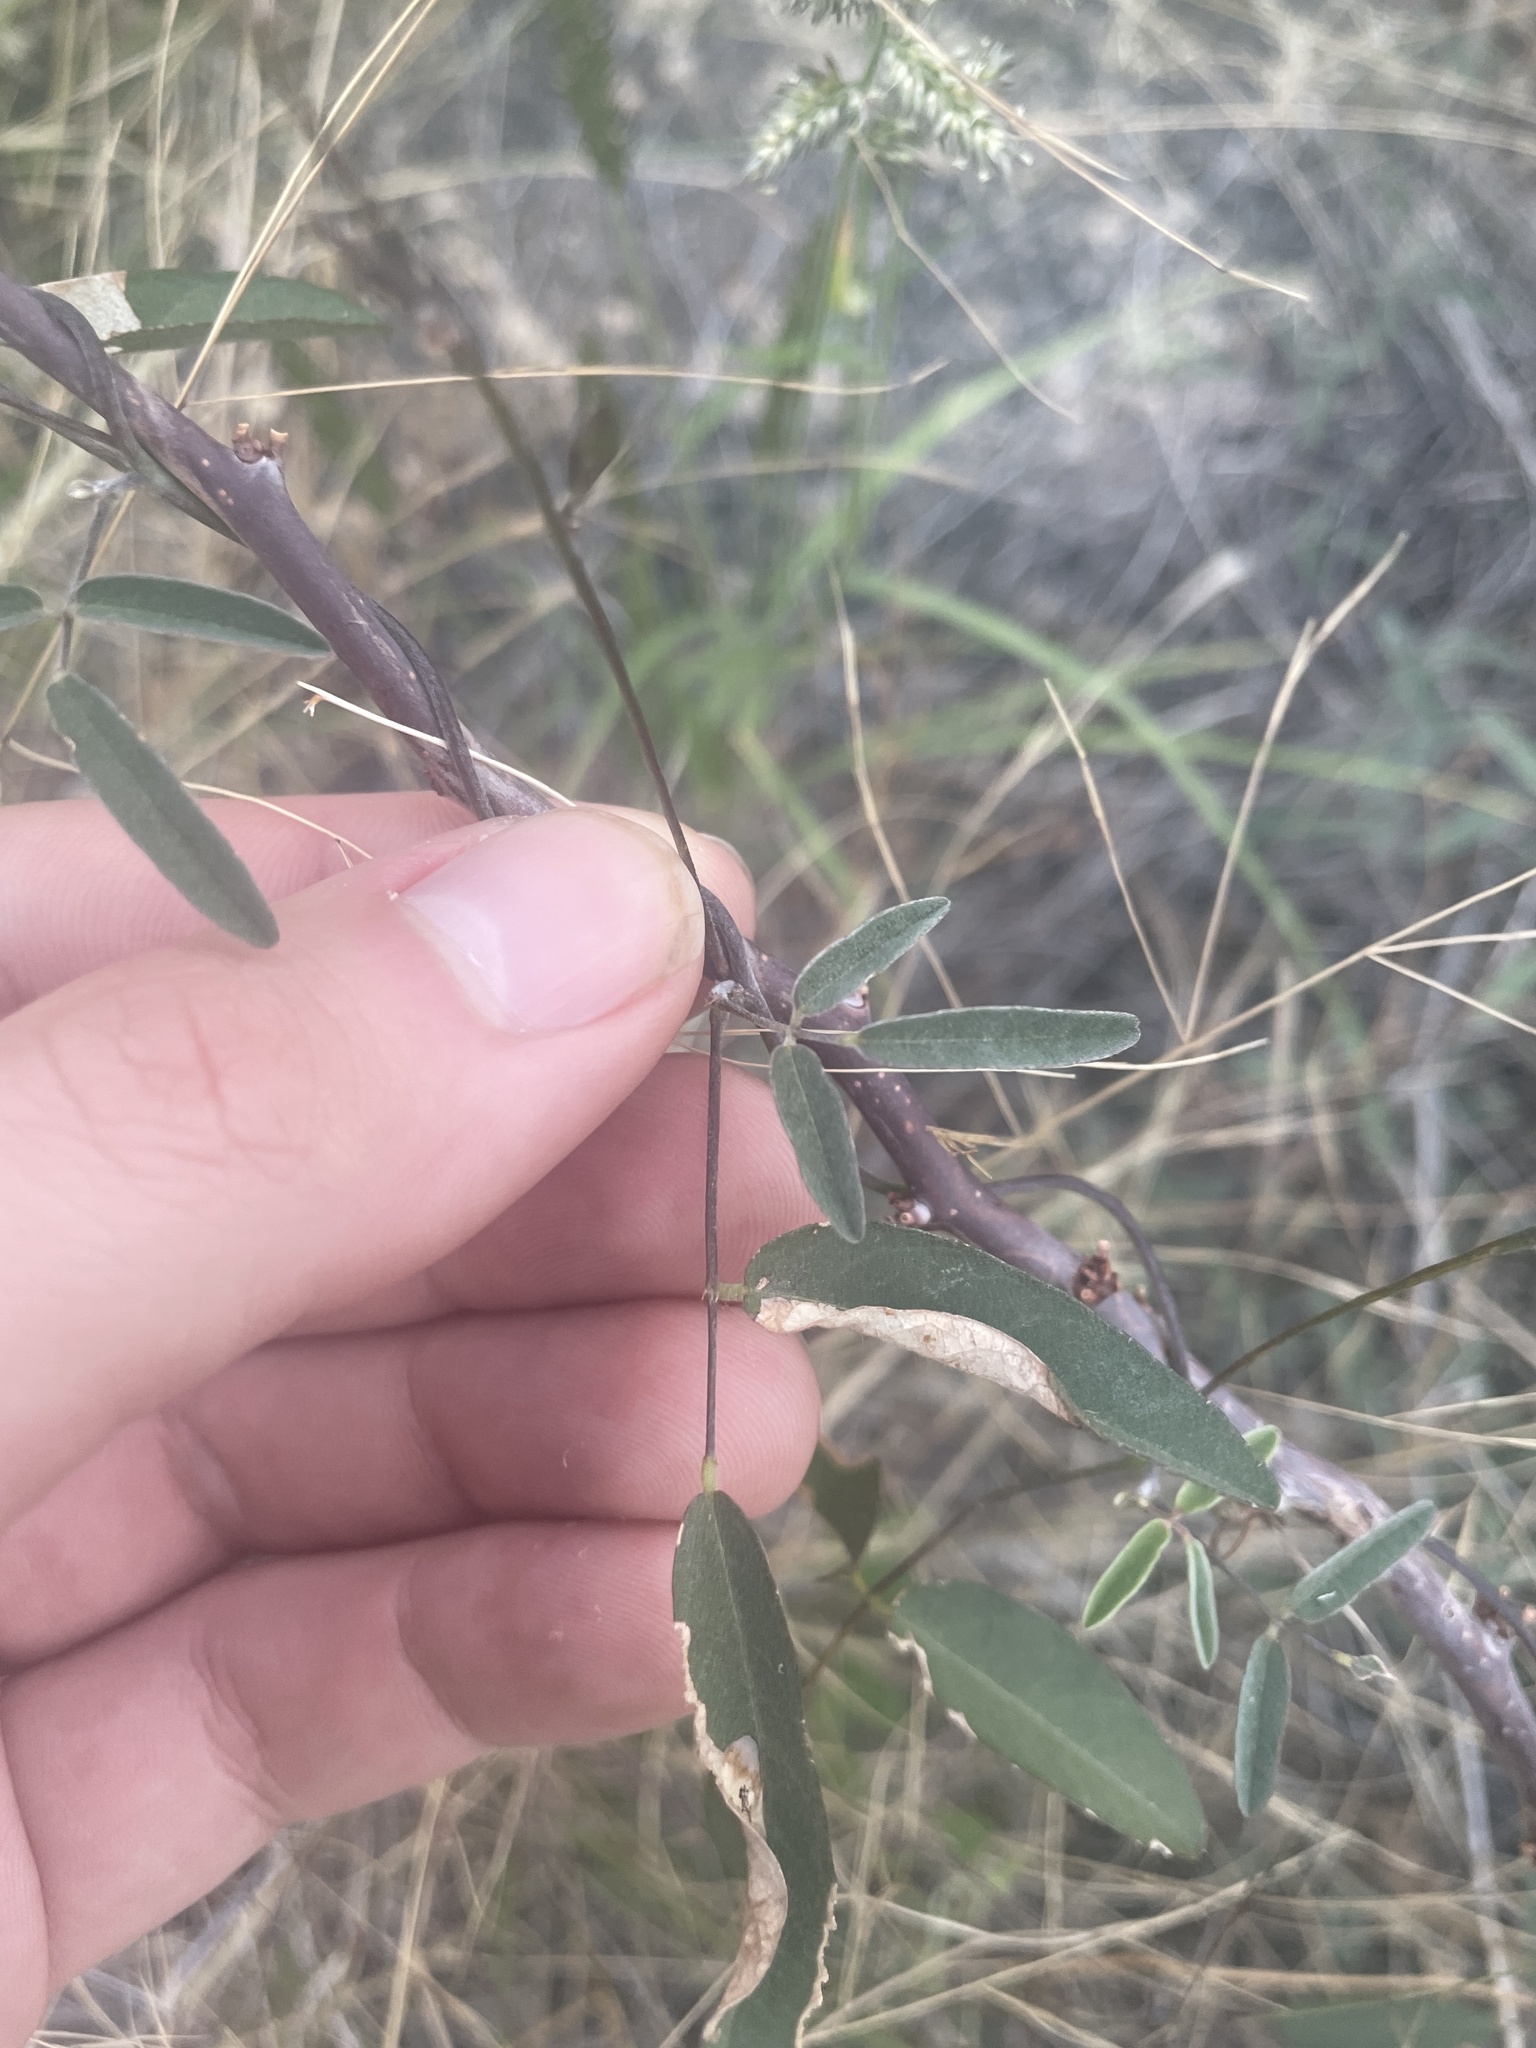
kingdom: Plantae
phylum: Tracheophyta
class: Magnoliopsida
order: Fabales
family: Fabaceae
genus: Galactia
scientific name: Galactia wrightii
